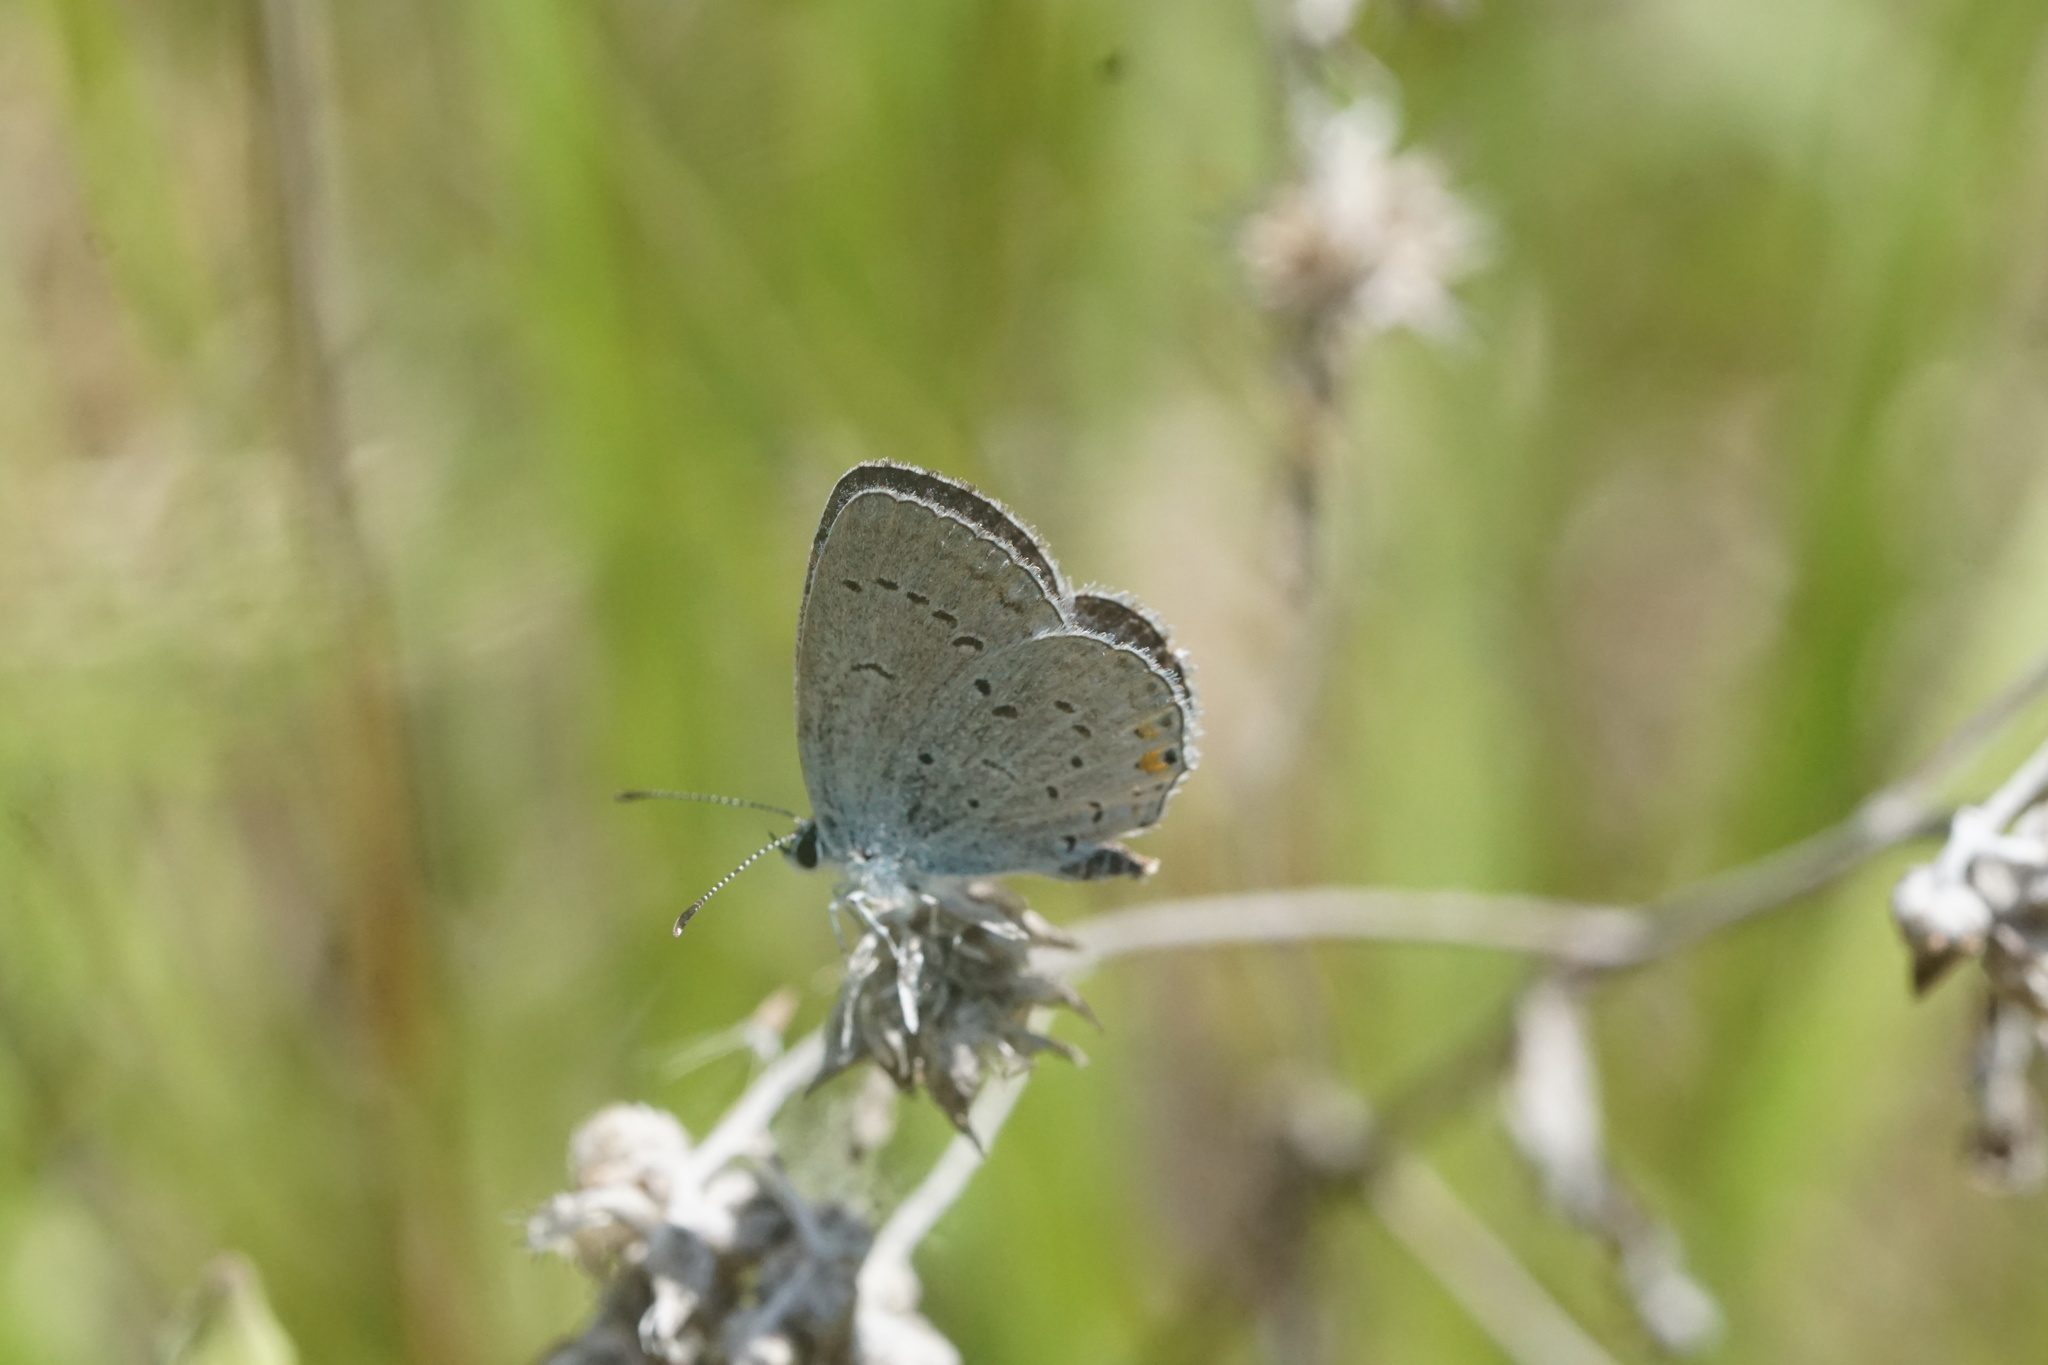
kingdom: Animalia
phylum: Arthropoda
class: Insecta
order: Lepidoptera
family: Lycaenidae
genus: Elkalyce
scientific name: Elkalyce comyntas
